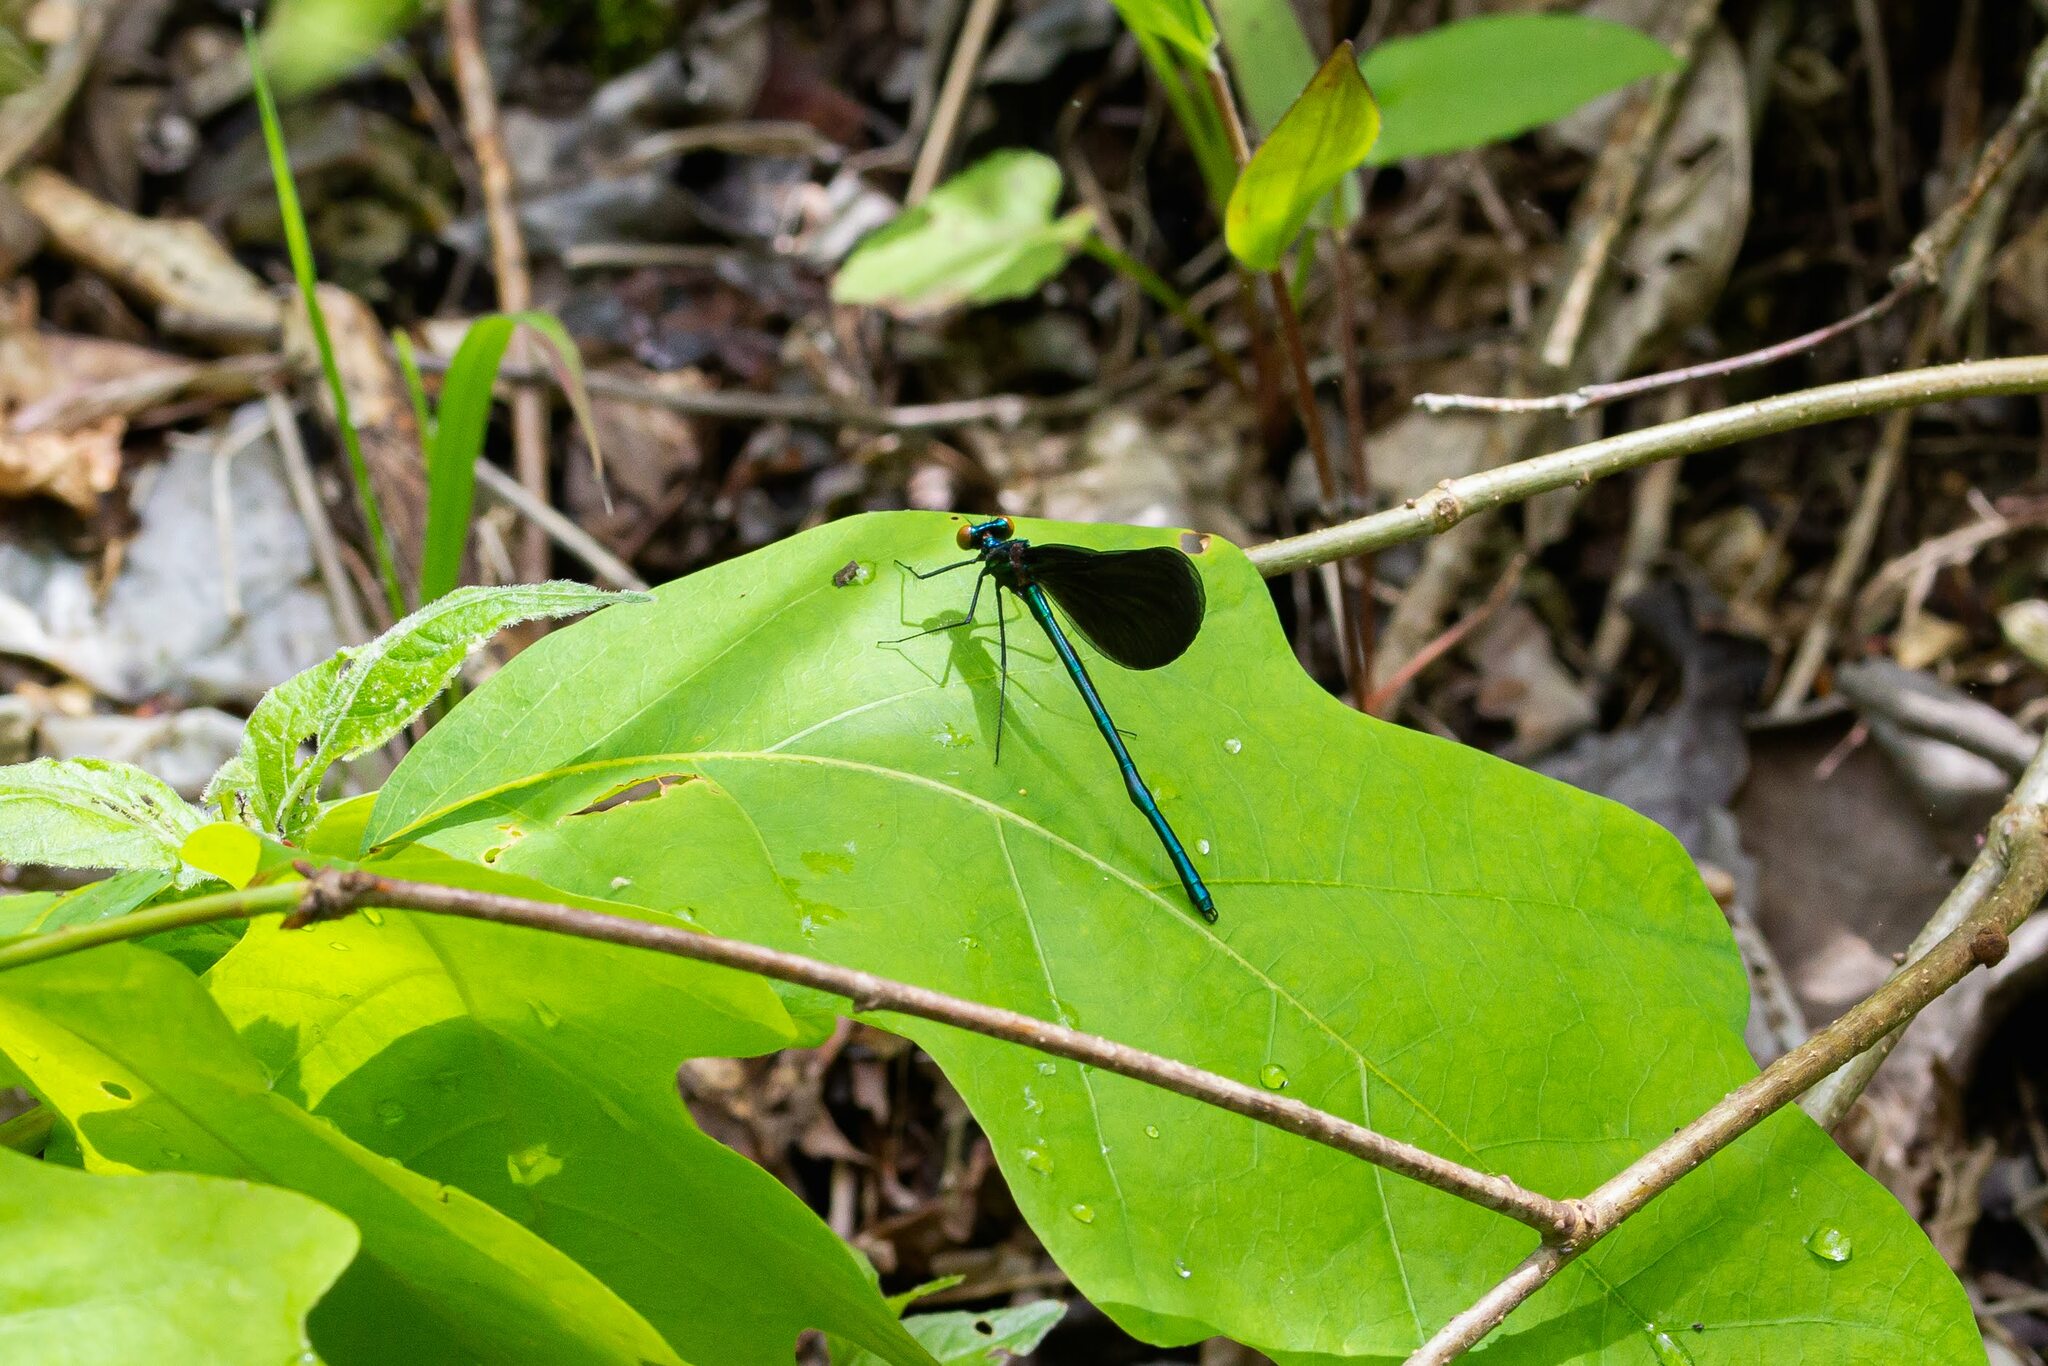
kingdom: Animalia
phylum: Arthropoda
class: Insecta
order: Odonata
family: Calopterygidae
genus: Calopteryx
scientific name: Calopteryx maculata
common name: Ebony jewelwing
